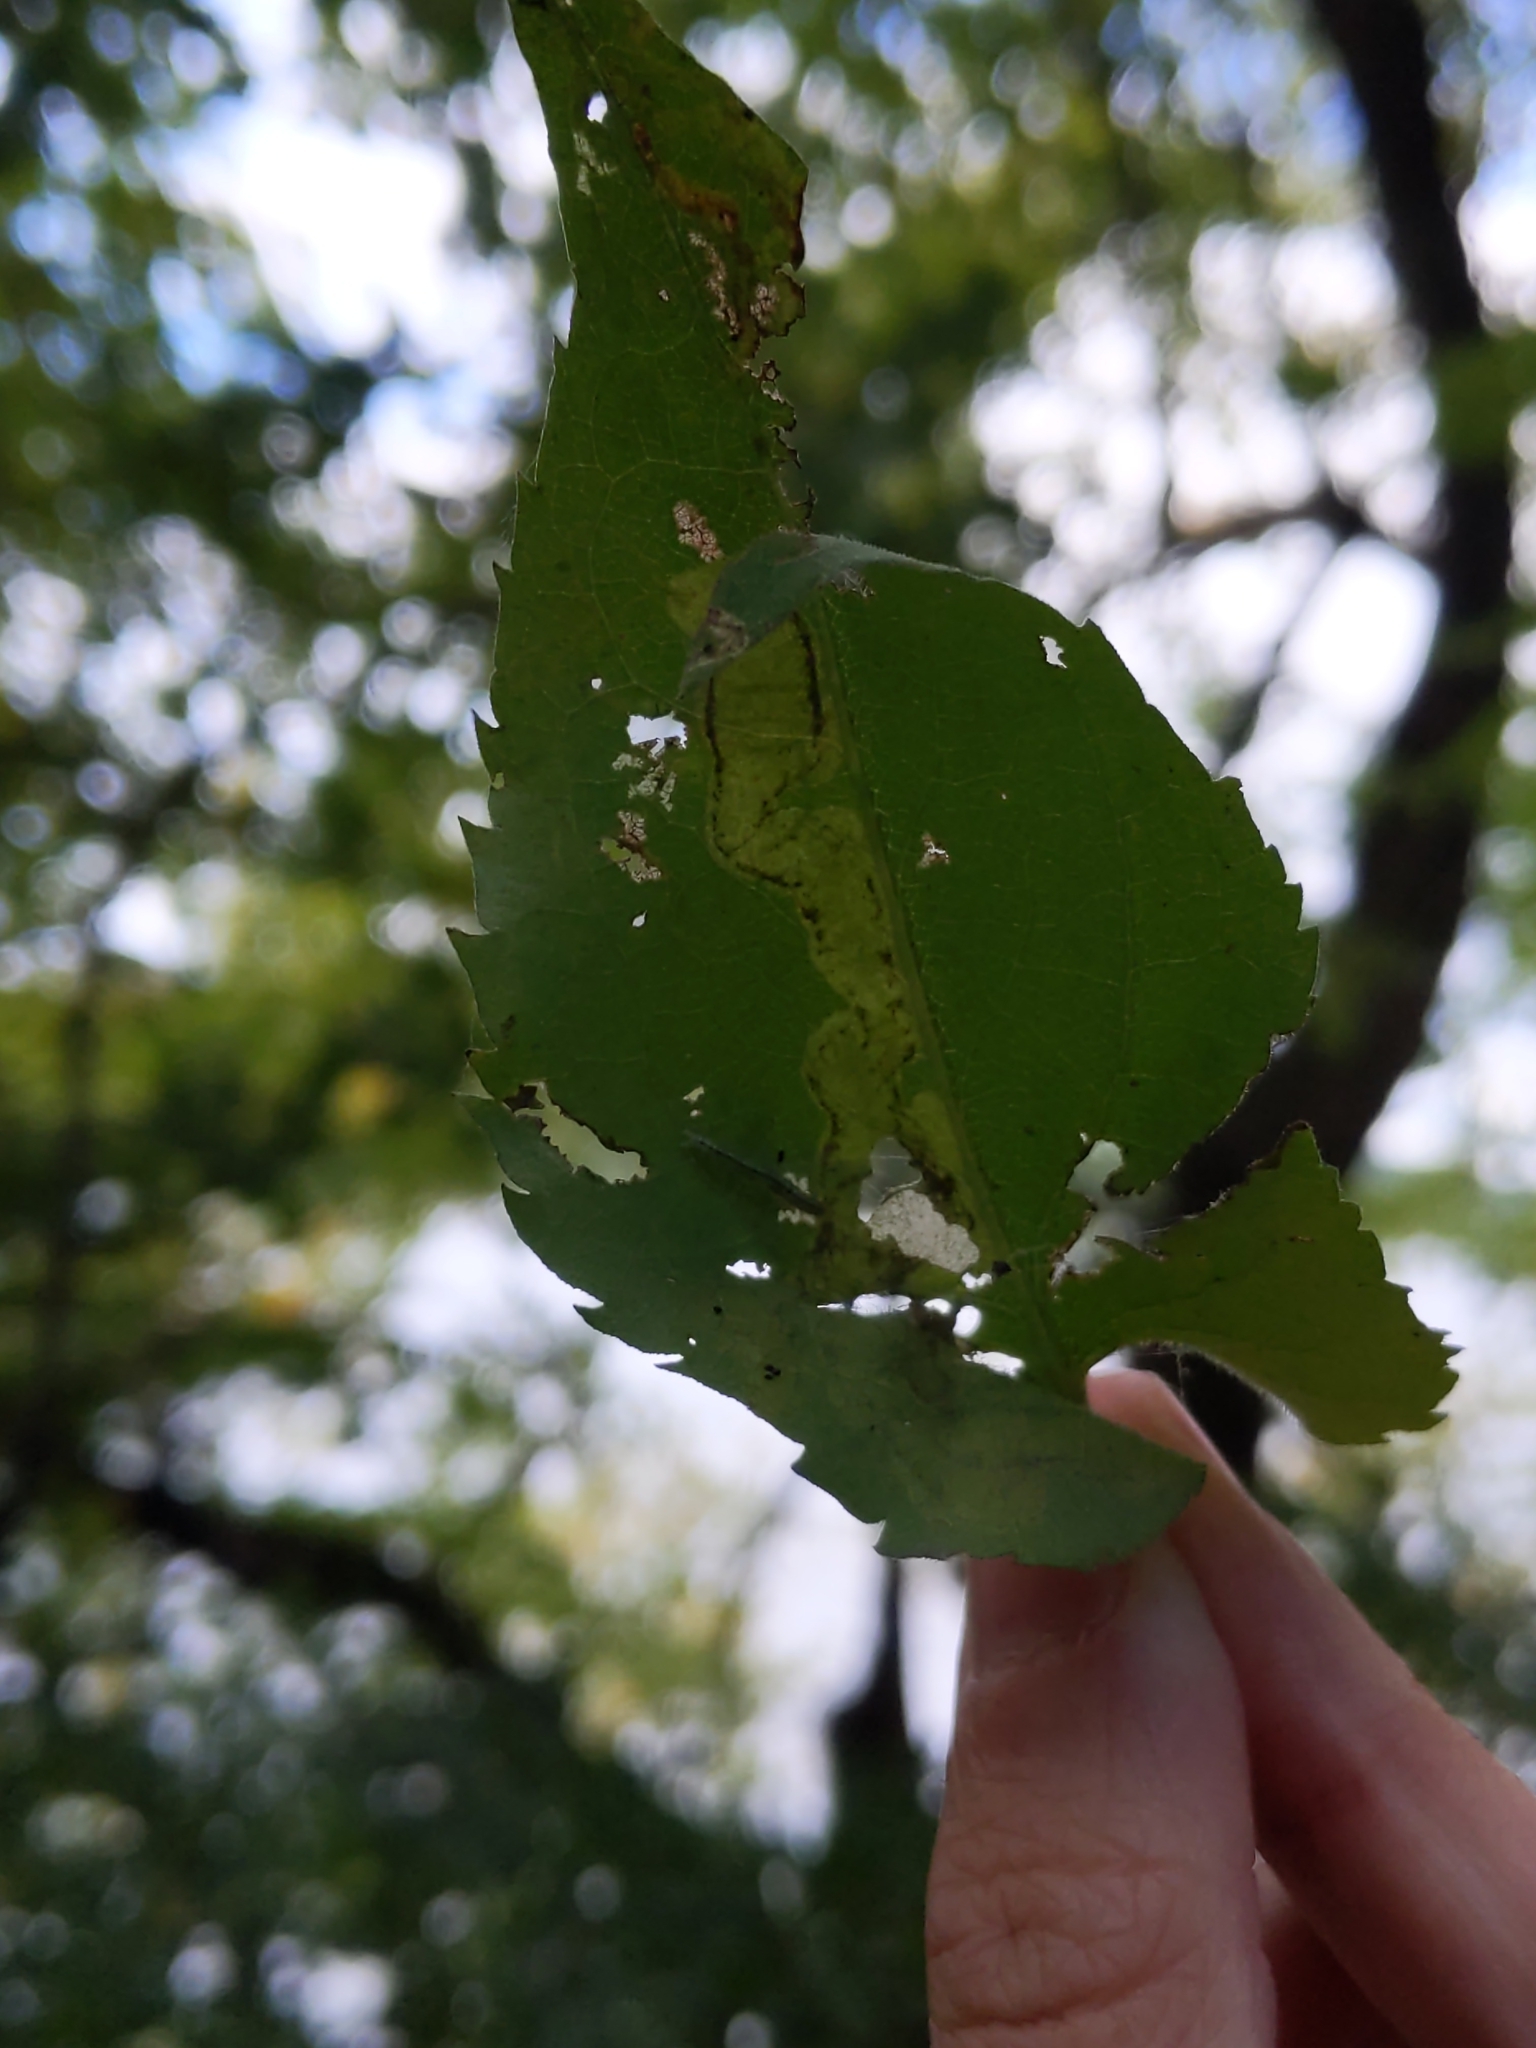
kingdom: Animalia
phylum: Arthropoda
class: Insecta
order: Coleoptera
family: Chrysomelidae
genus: Sumitrosis
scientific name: Sumitrosis inaequalis
